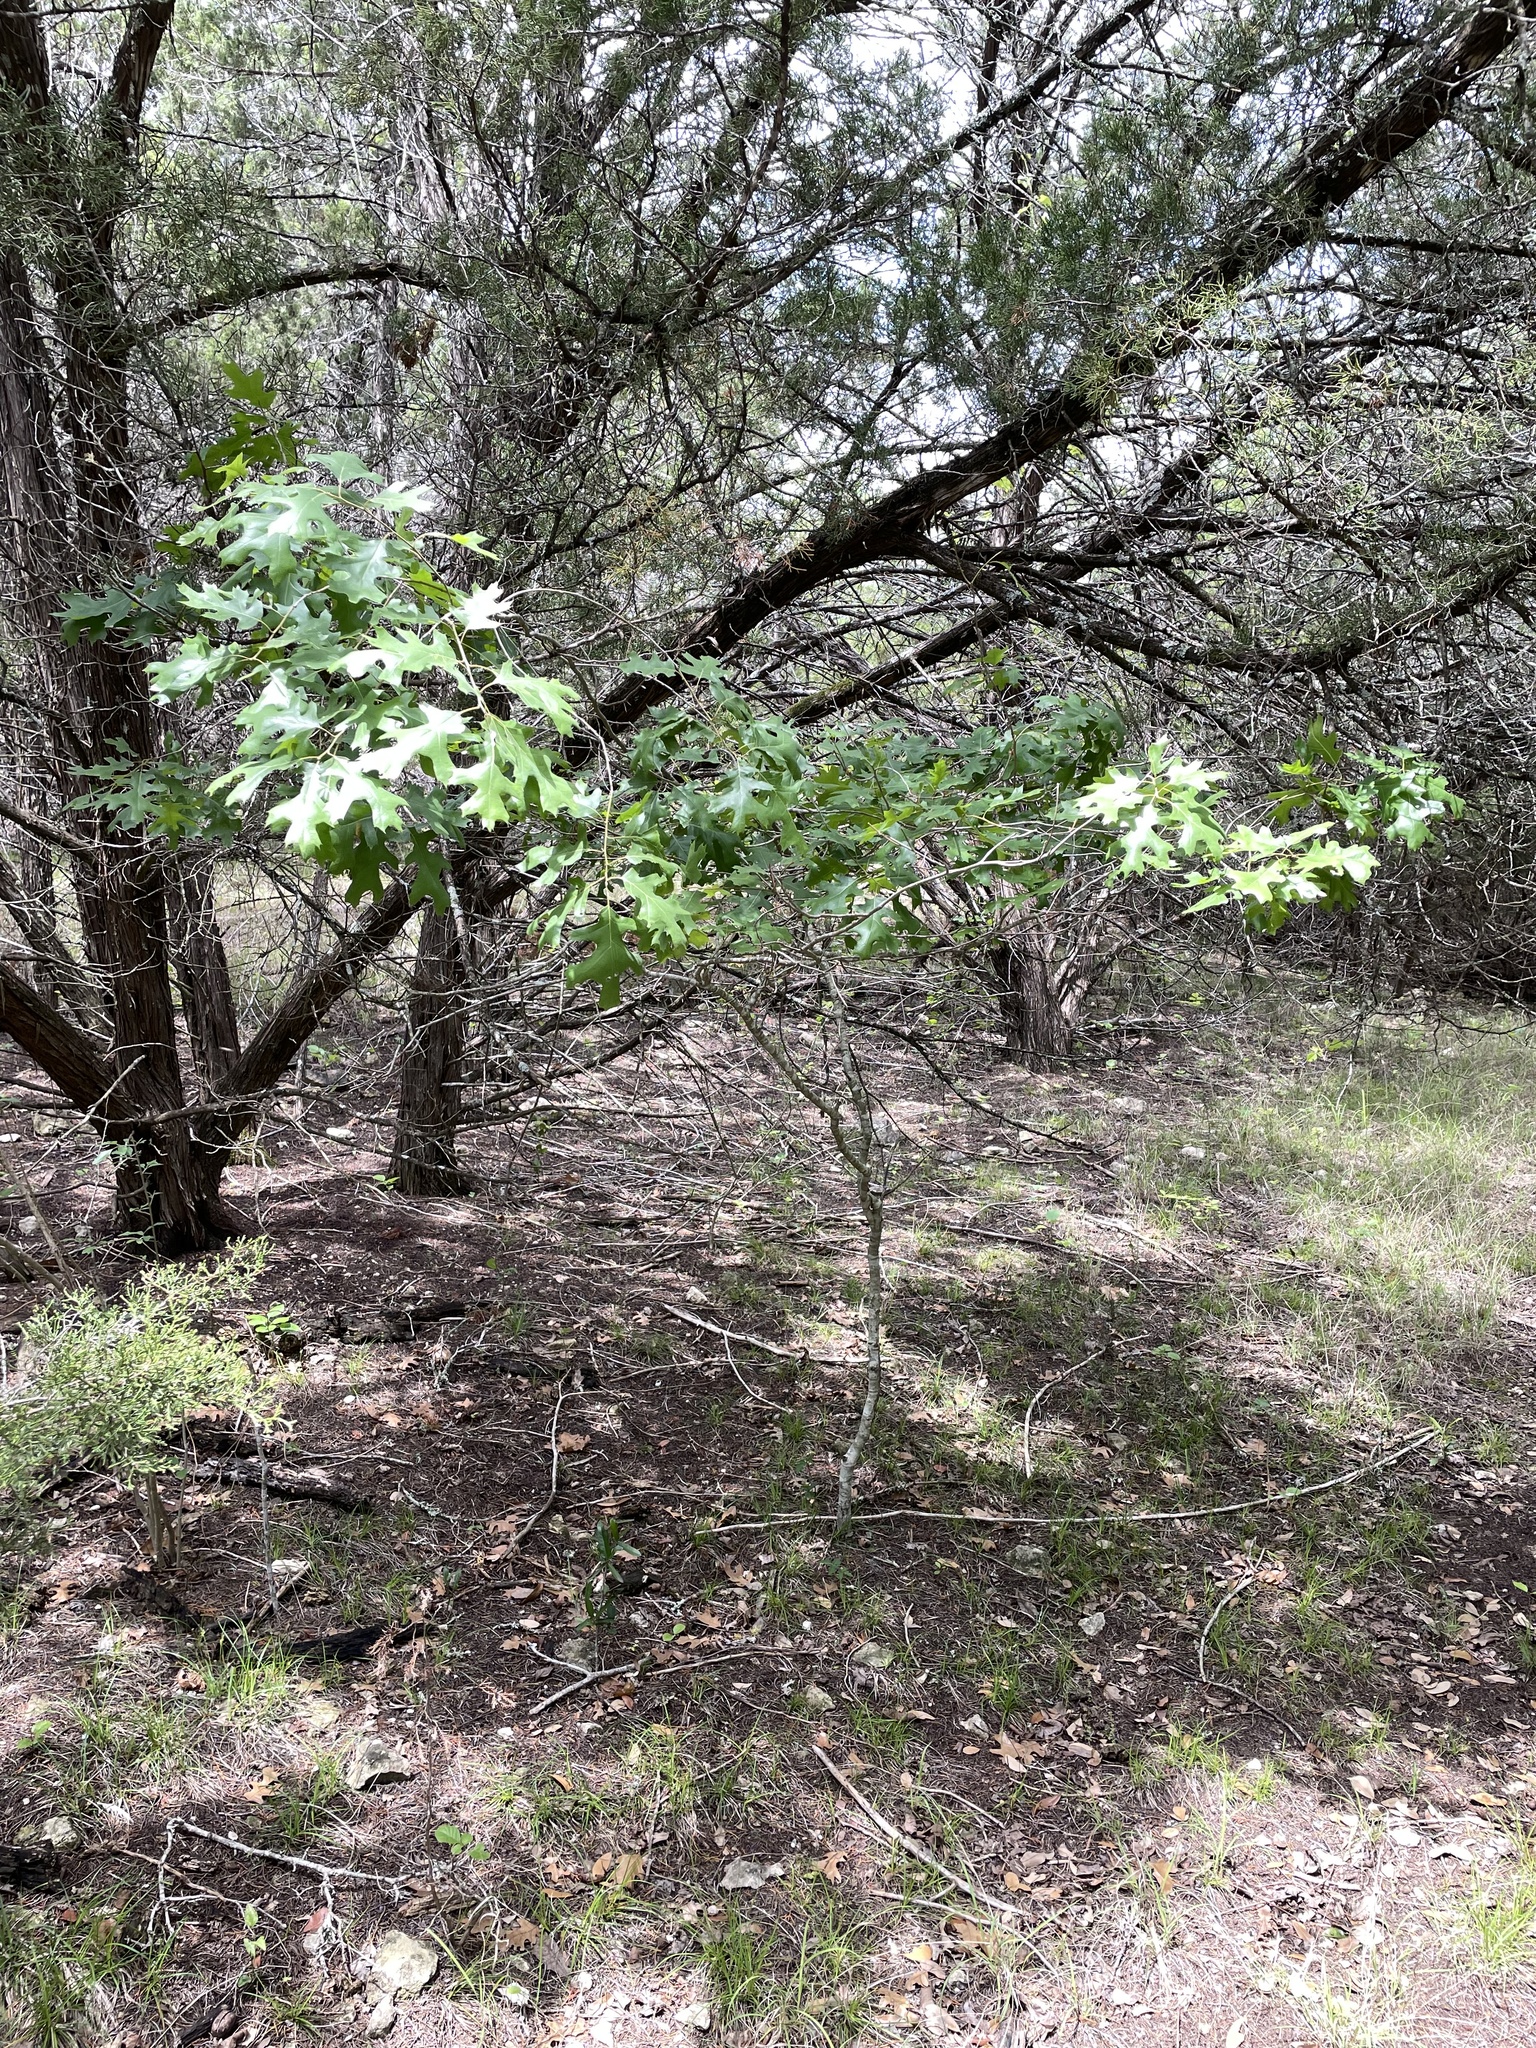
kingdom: Plantae
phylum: Tracheophyta
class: Magnoliopsida
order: Fagales
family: Fagaceae
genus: Quercus
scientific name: Quercus buckleyi
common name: Buckley oak
